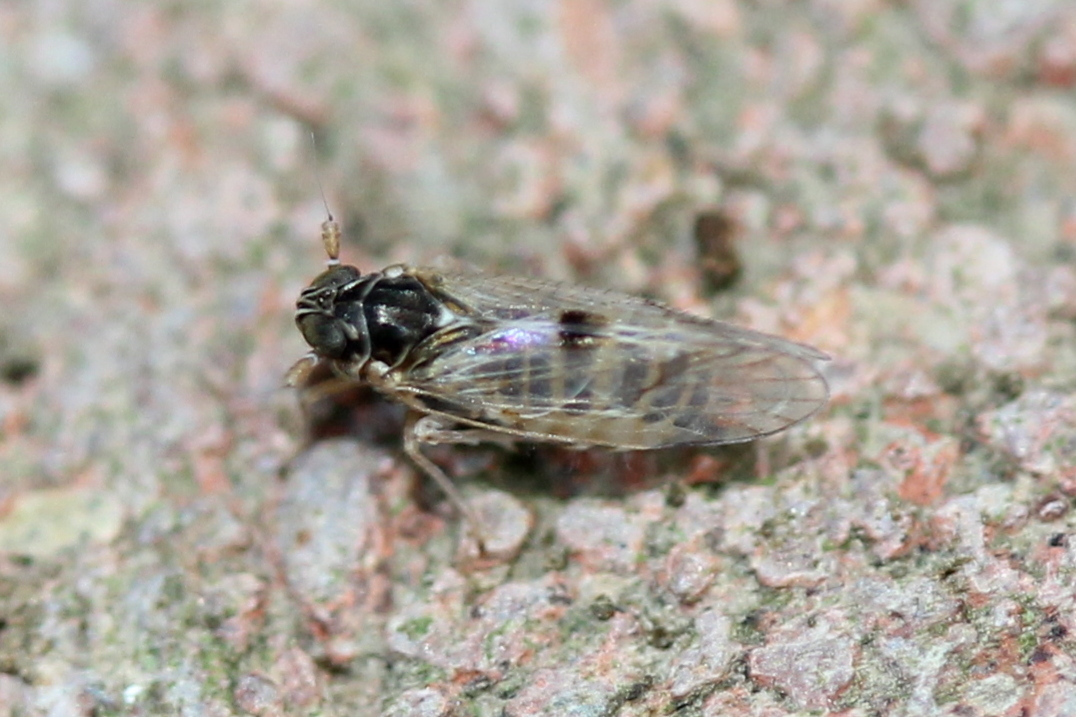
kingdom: Animalia
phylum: Arthropoda
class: Insecta
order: Hemiptera
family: Delphacidae
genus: Chionomus
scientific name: Chionomus
